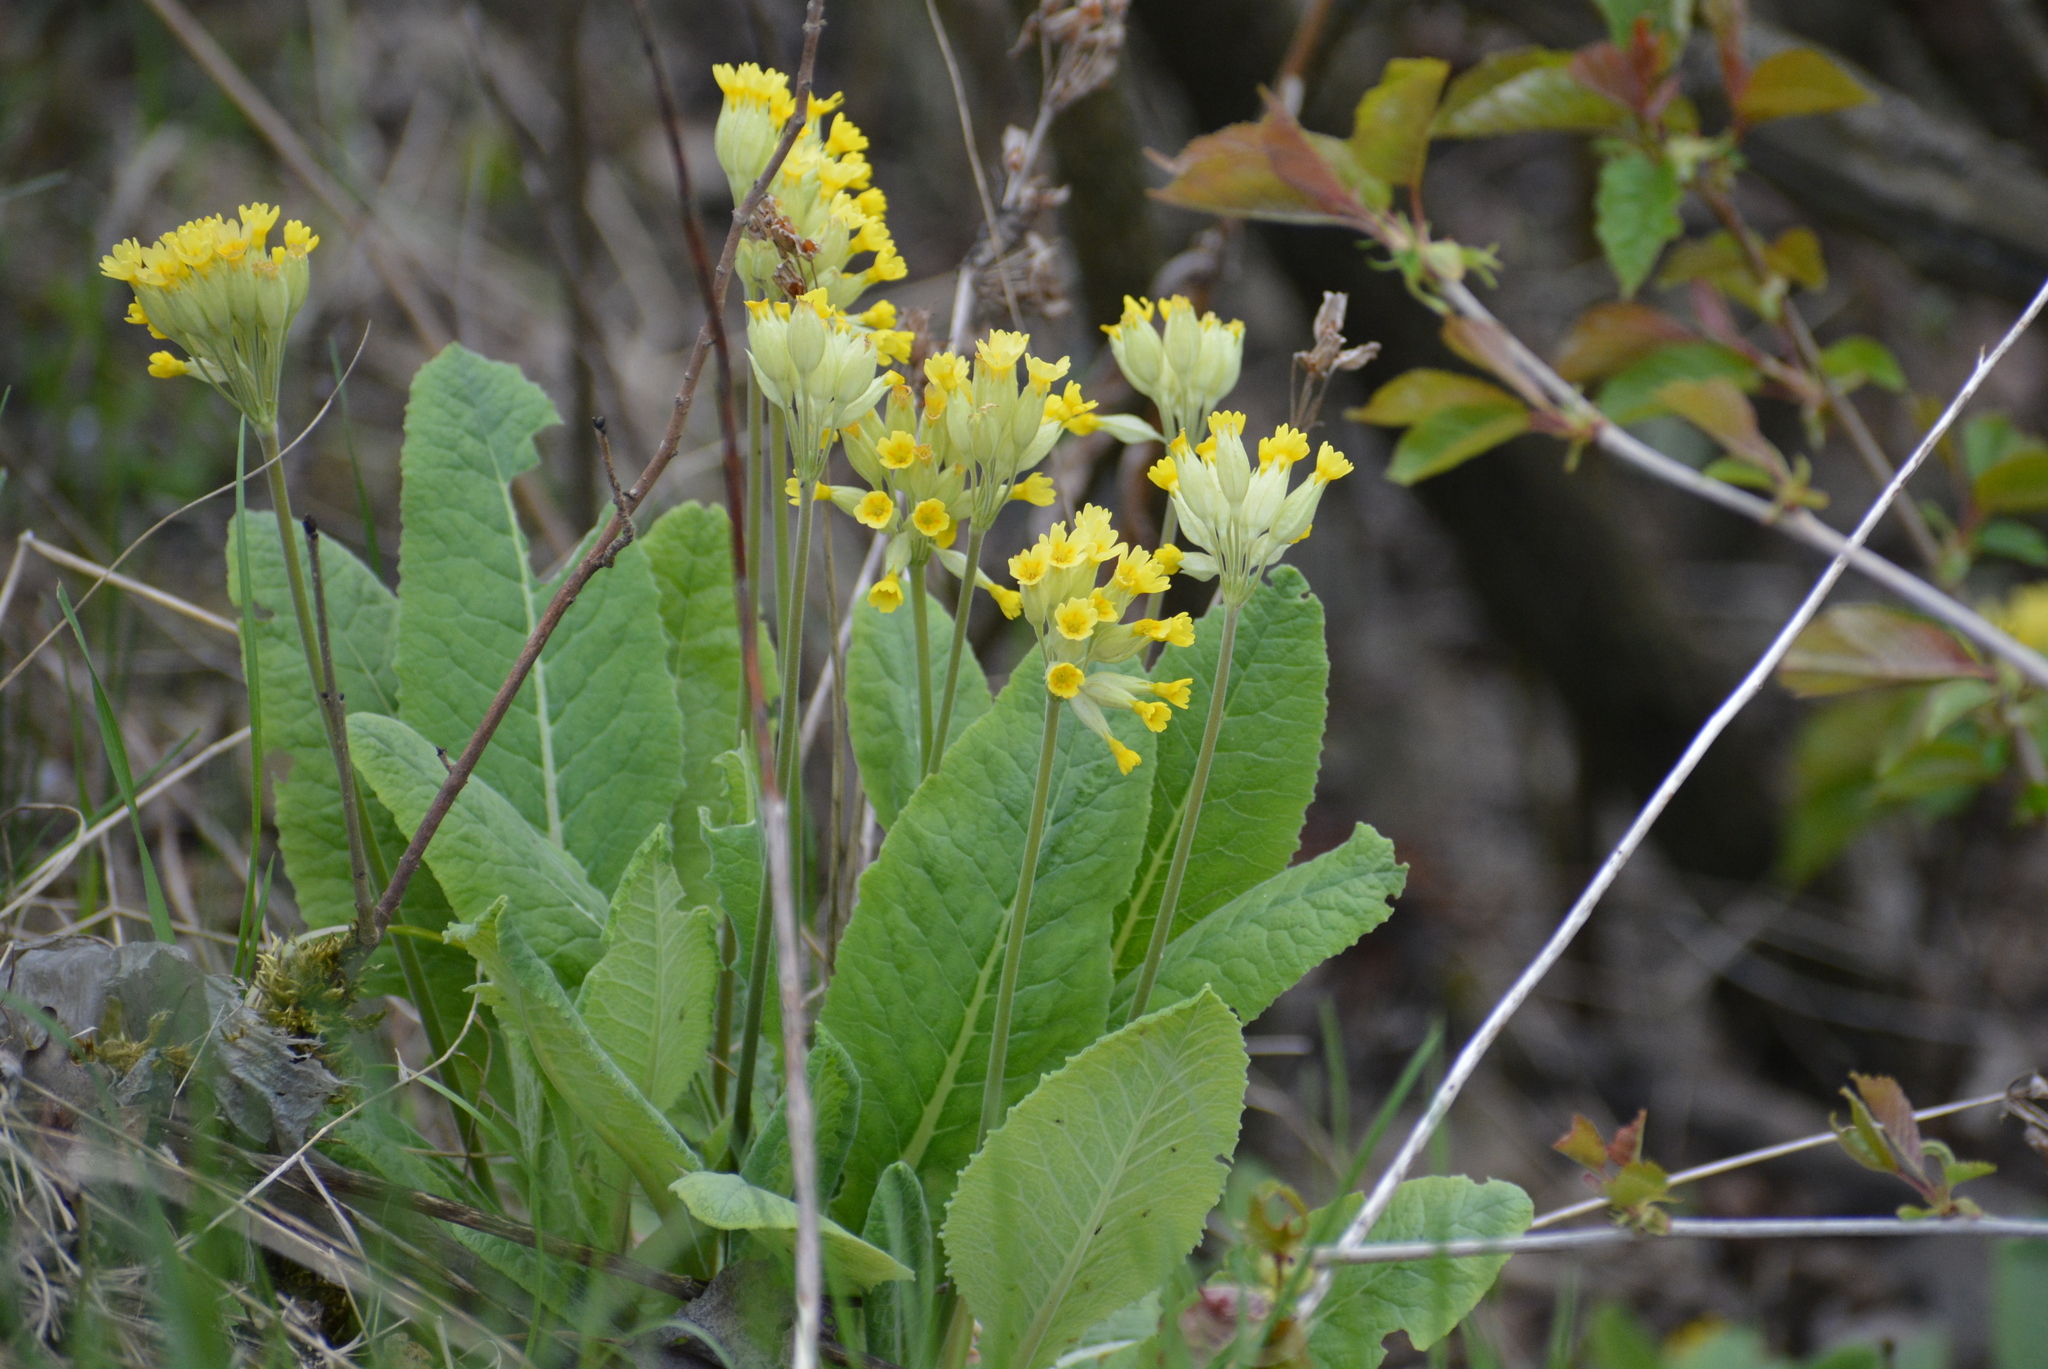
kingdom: Plantae
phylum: Tracheophyta
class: Magnoliopsida
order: Ericales
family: Primulaceae
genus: Primula
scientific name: Primula veris
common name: Cowslip
